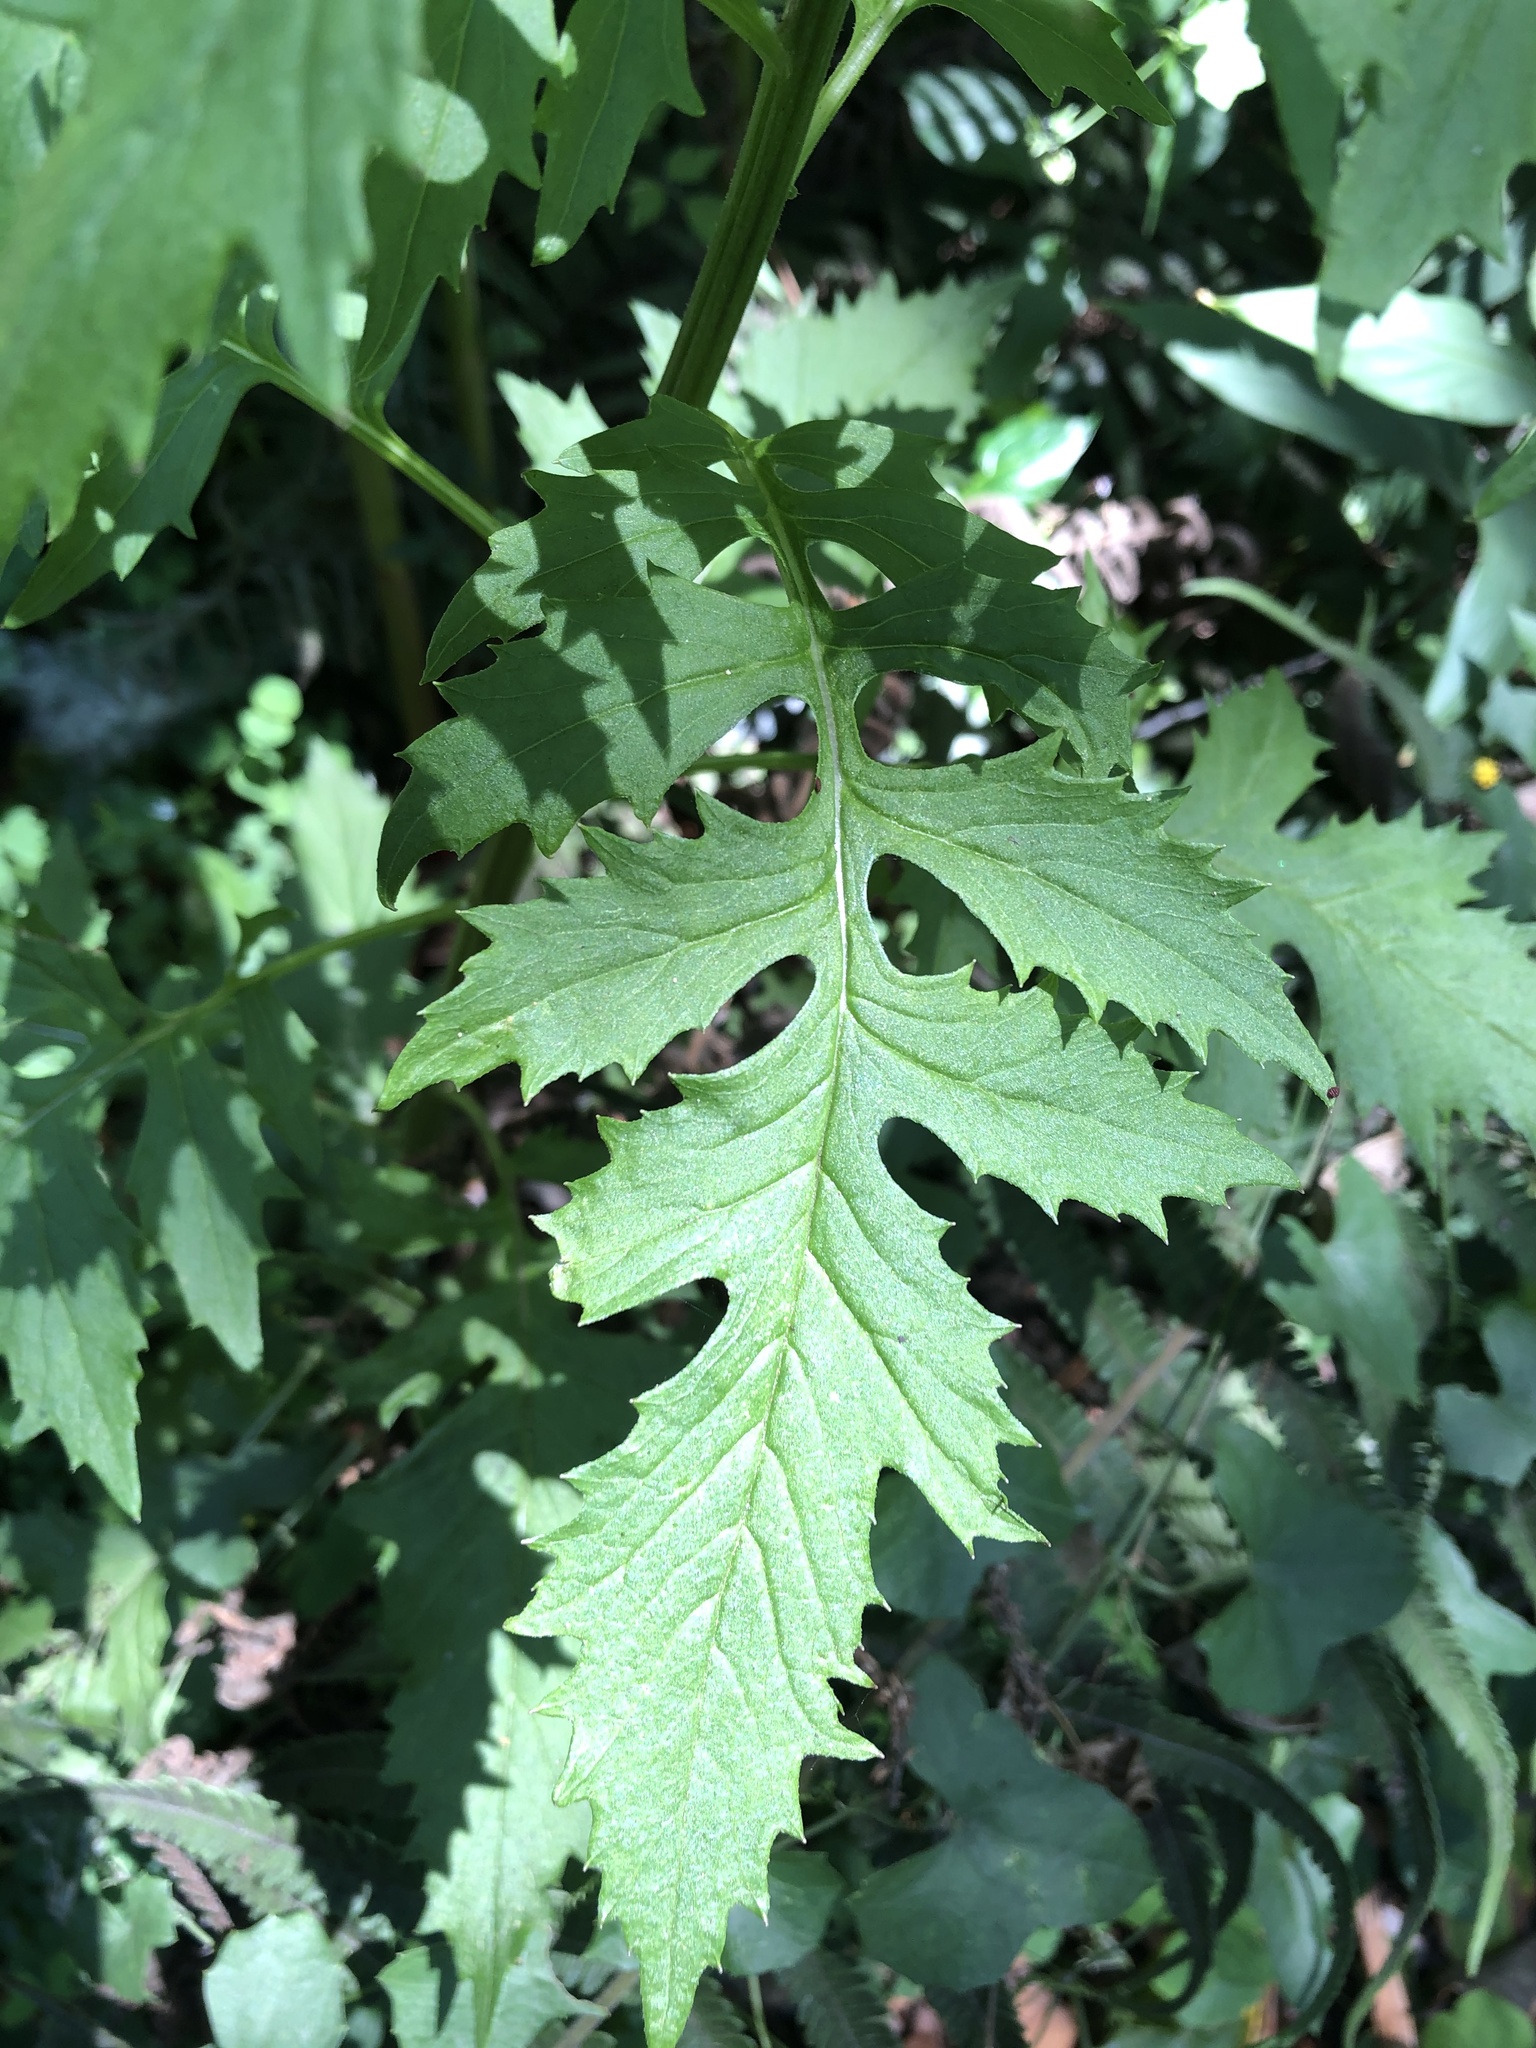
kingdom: Plantae
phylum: Tracheophyta
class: Magnoliopsida
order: Asterales
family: Asteraceae
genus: Erechtites
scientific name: Erechtites valerianifolius
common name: Tropical burnweed
